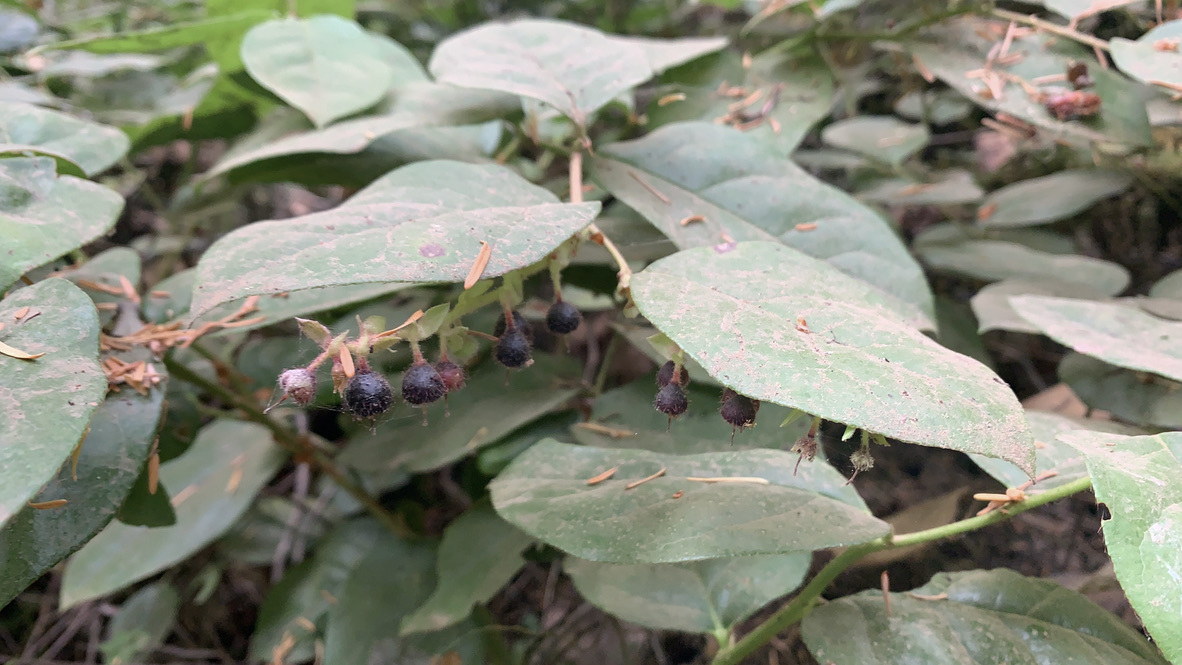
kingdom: Plantae
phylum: Tracheophyta
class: Magnoliopsida
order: Ericales
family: Ericaceae
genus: Gaultheria
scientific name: Gaultheria shallon
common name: Shallon
